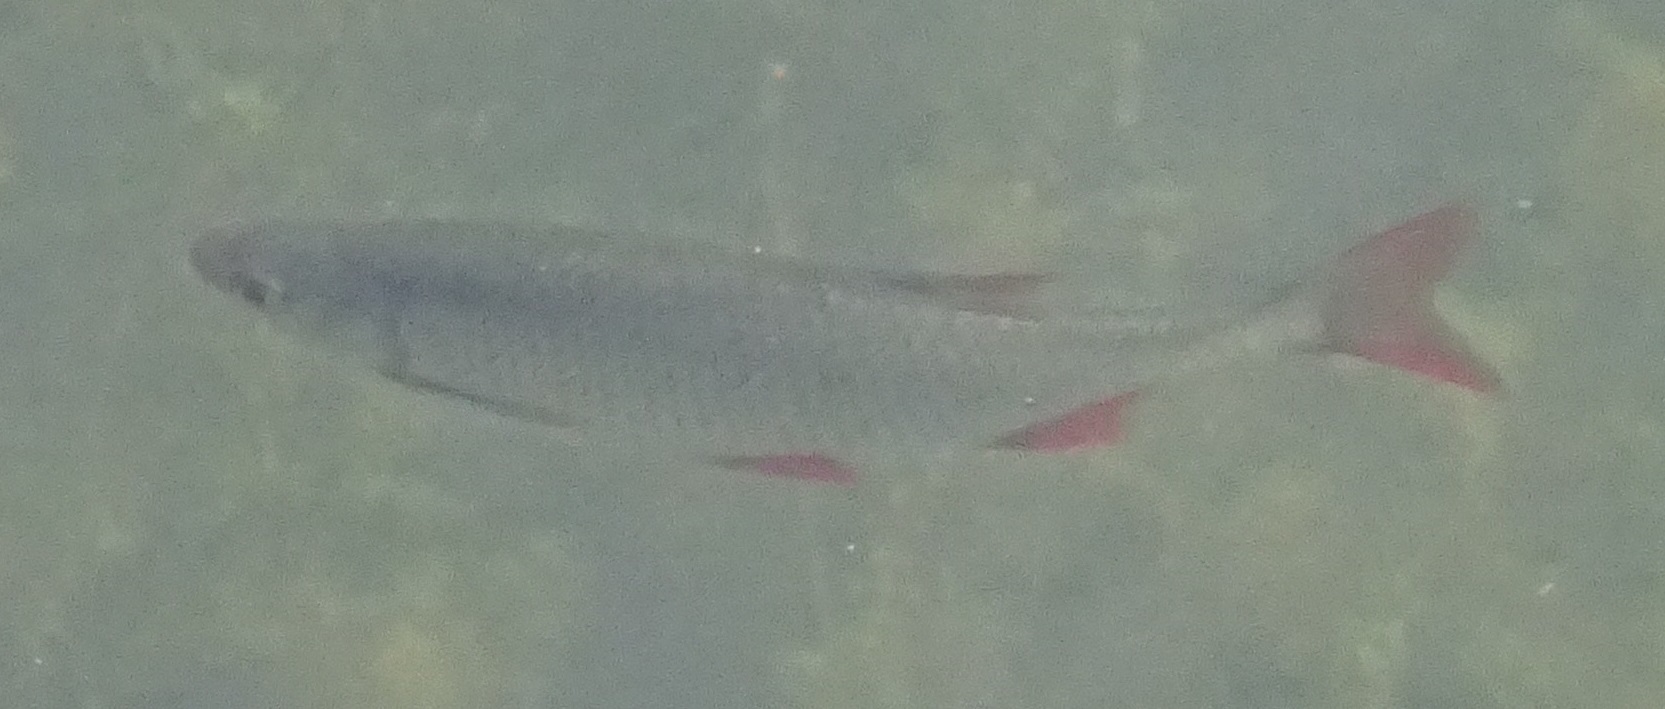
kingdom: Animalia
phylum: Chordata
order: Cypriniformes
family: Cyprinidae
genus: Scardinius
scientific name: Scardinius erythrophthalmus
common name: Rudd
